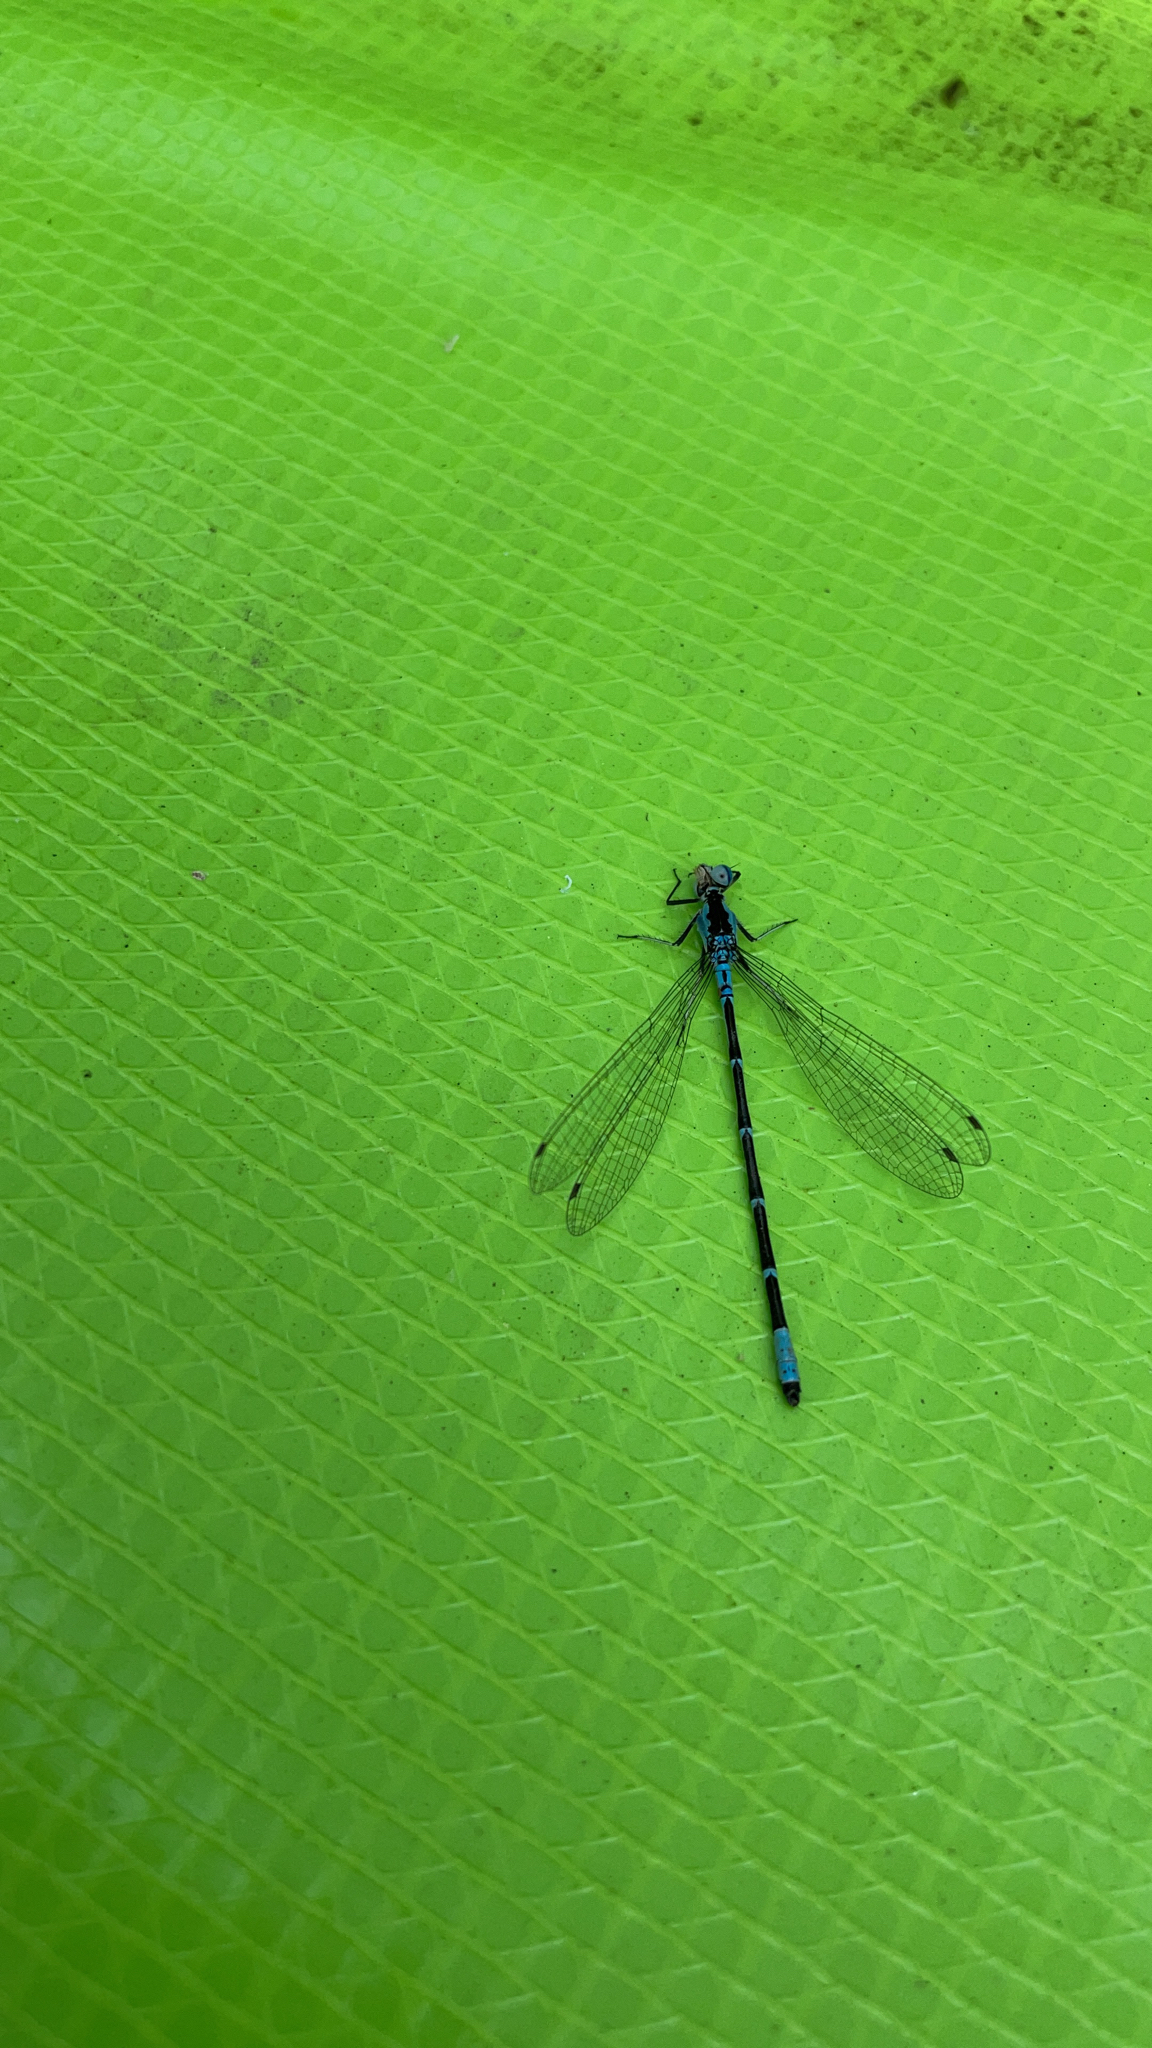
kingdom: Animalia
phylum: Arthropoda
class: Insecta
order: Odonata
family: Coenagrionidae
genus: Chromagrion
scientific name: Chromagrion conditum
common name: Aurora damsel
